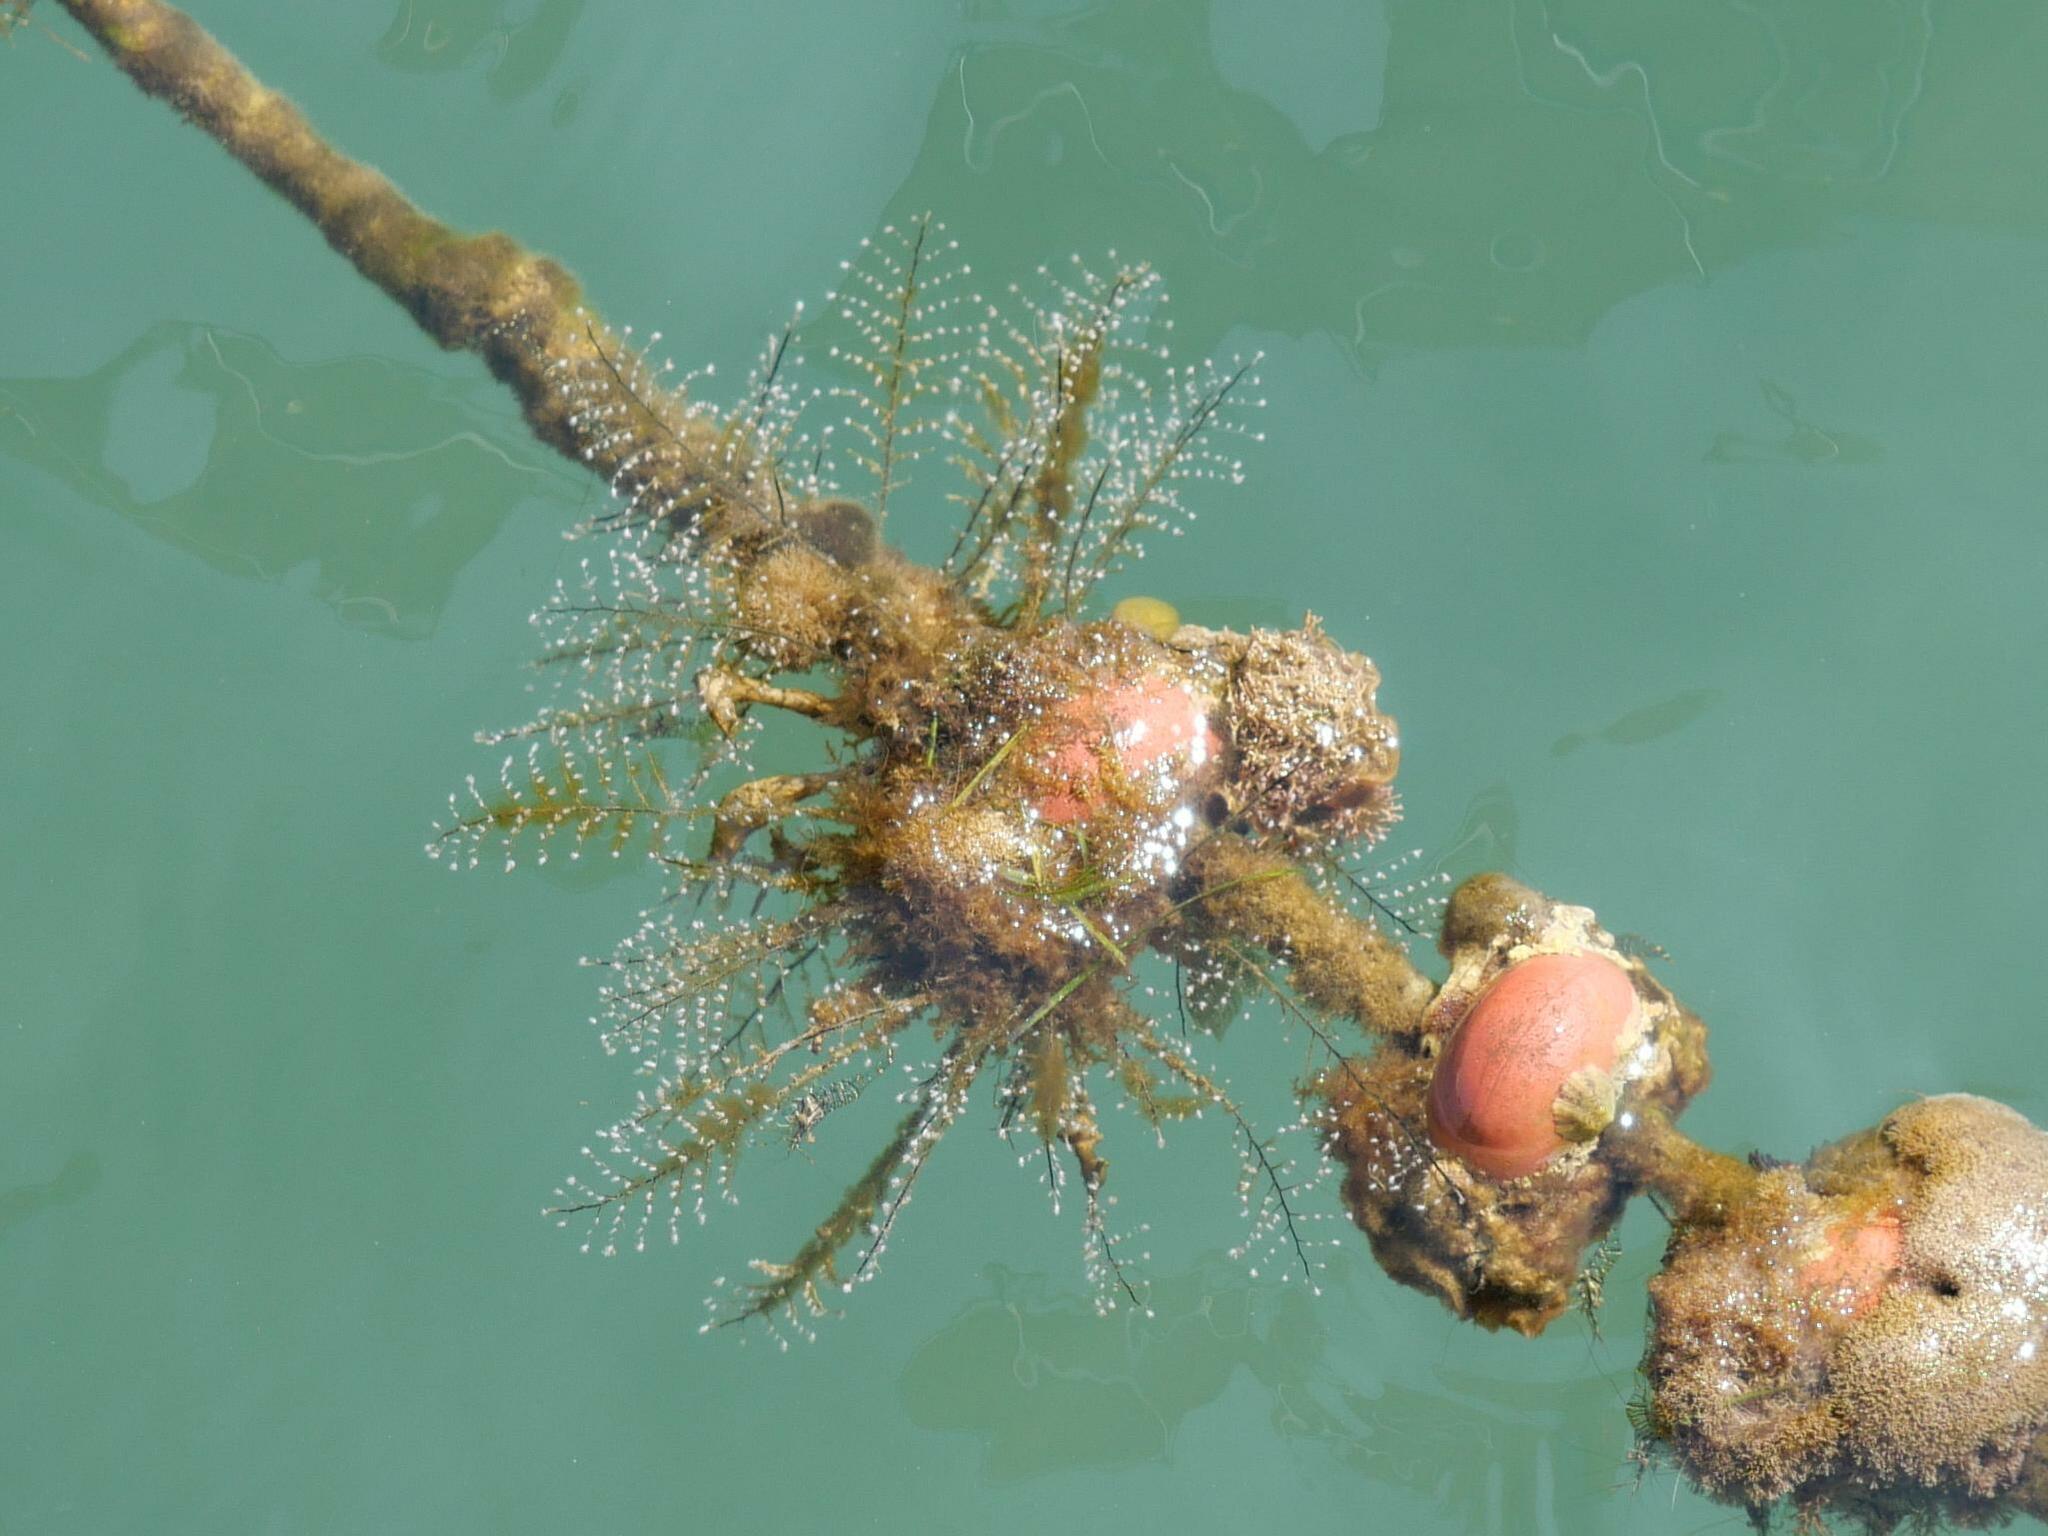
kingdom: Animalia
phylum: Cnidaria
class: Hydrozoa
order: Anthoathecata
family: Pennariidae
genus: Pennaria
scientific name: Pennaria disticha
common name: Feather hydroid
